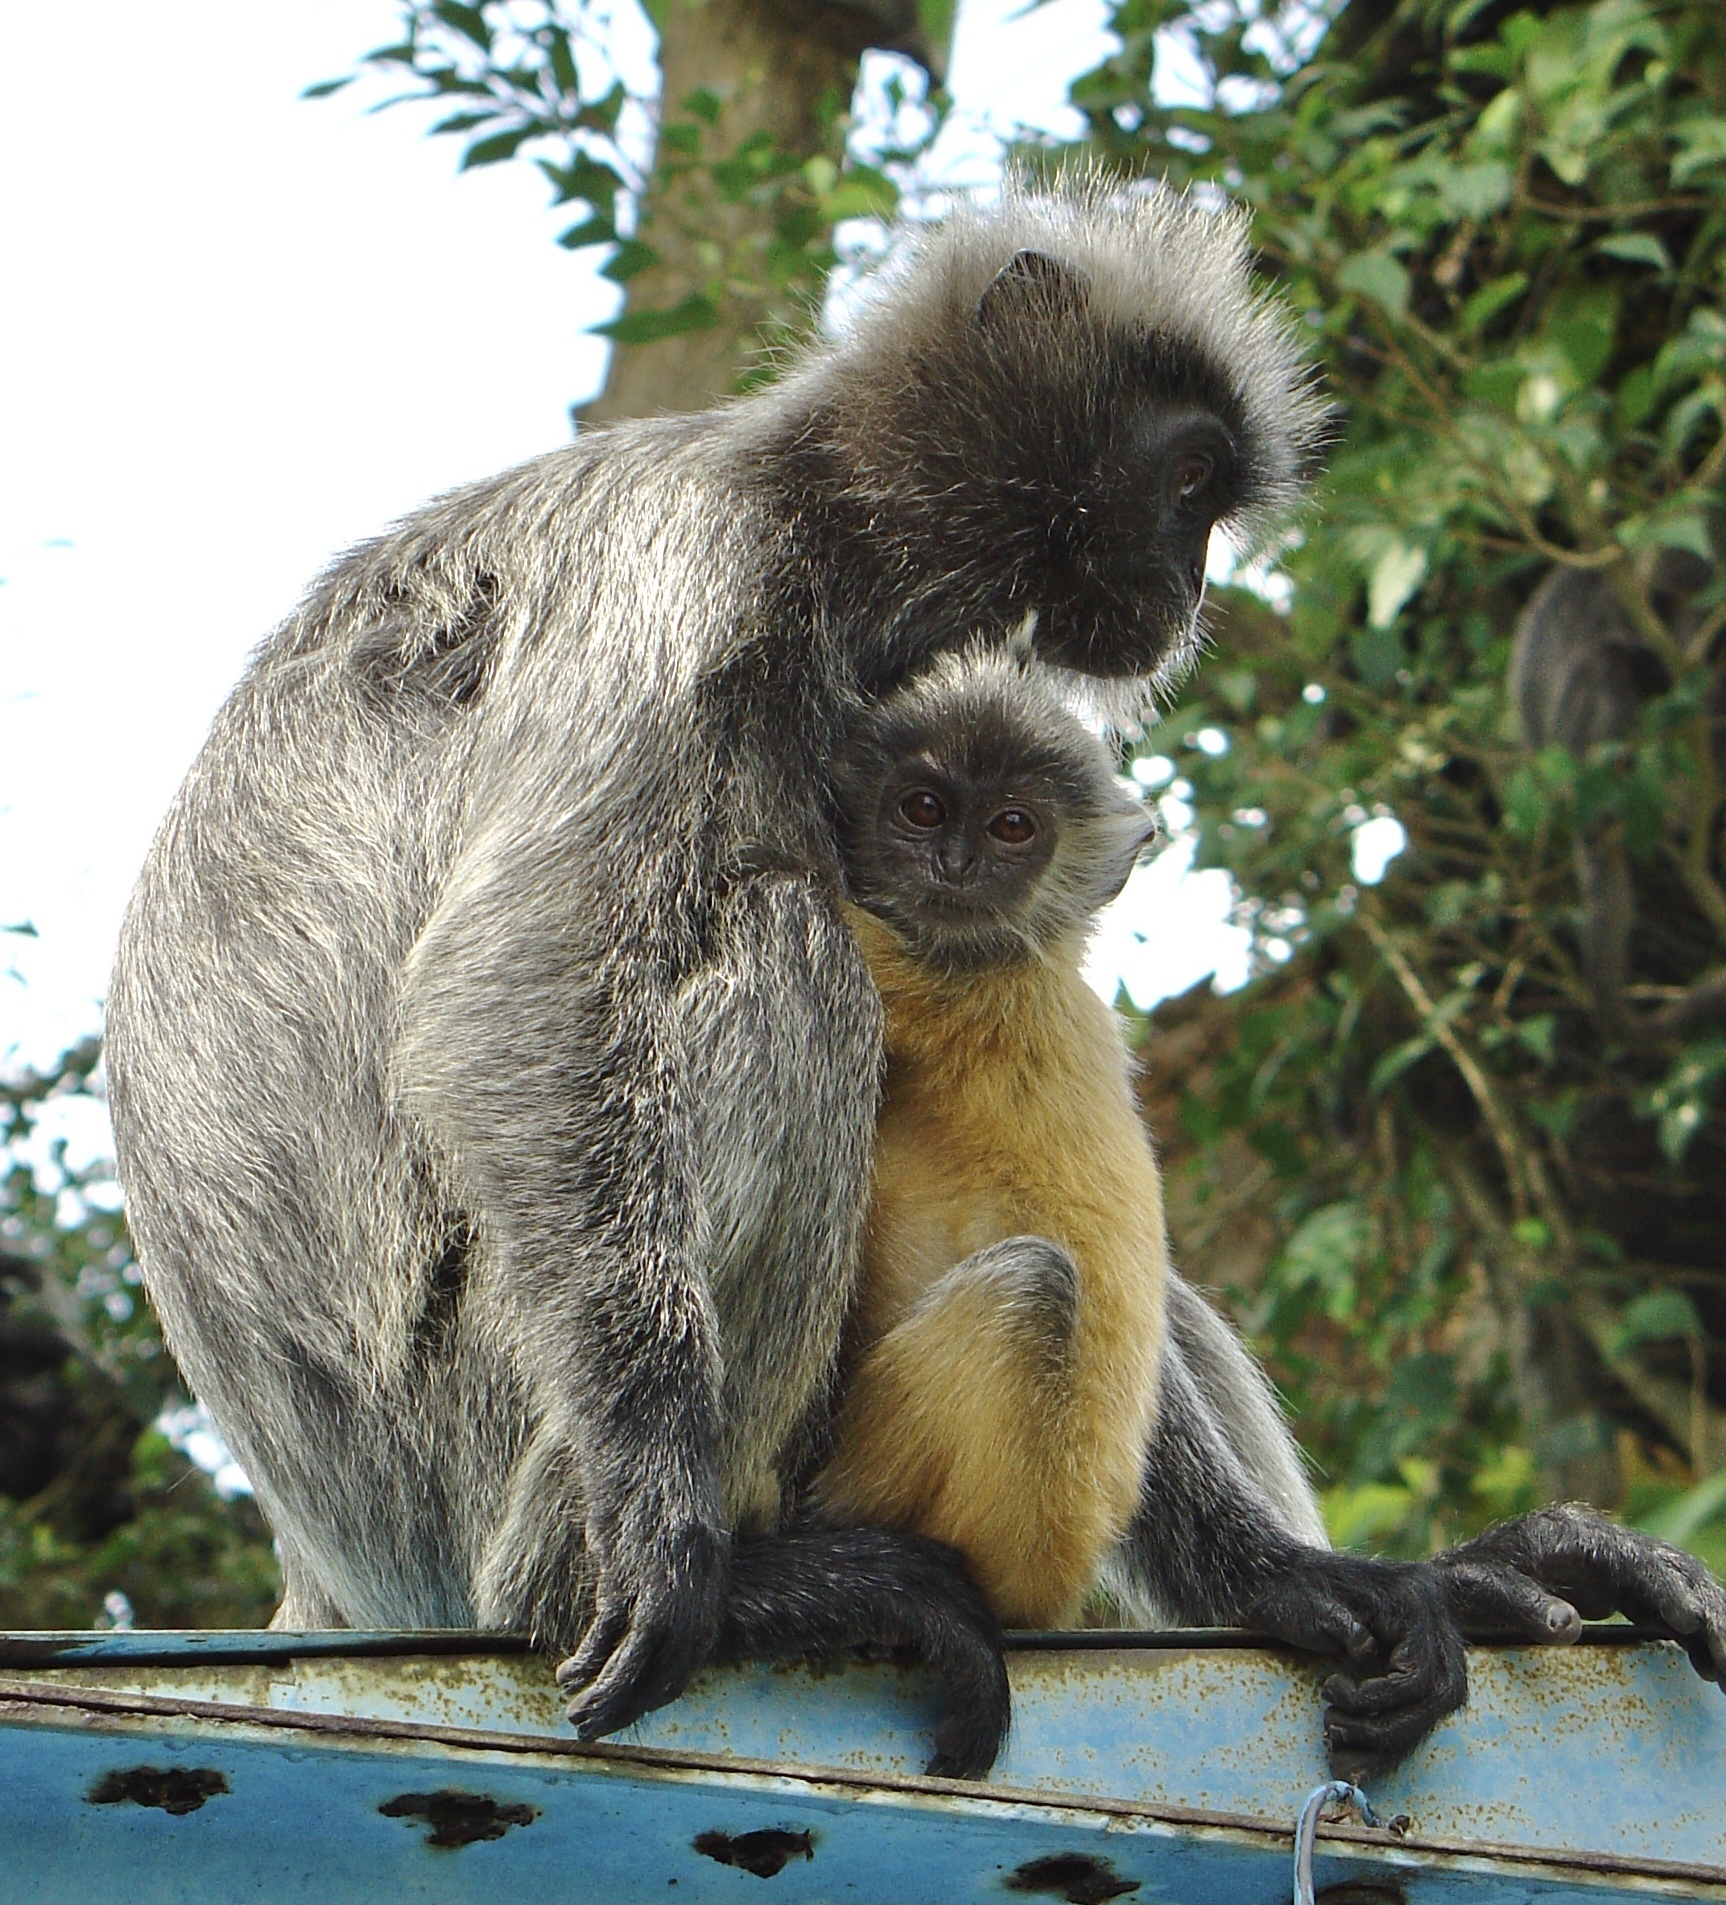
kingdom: Animalia
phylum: Chordata
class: Mammalia
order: Primates
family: Cercopithecidae
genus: Trachypithecus
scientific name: Trachypithecus selangorensis
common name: Selangor silvery langur
